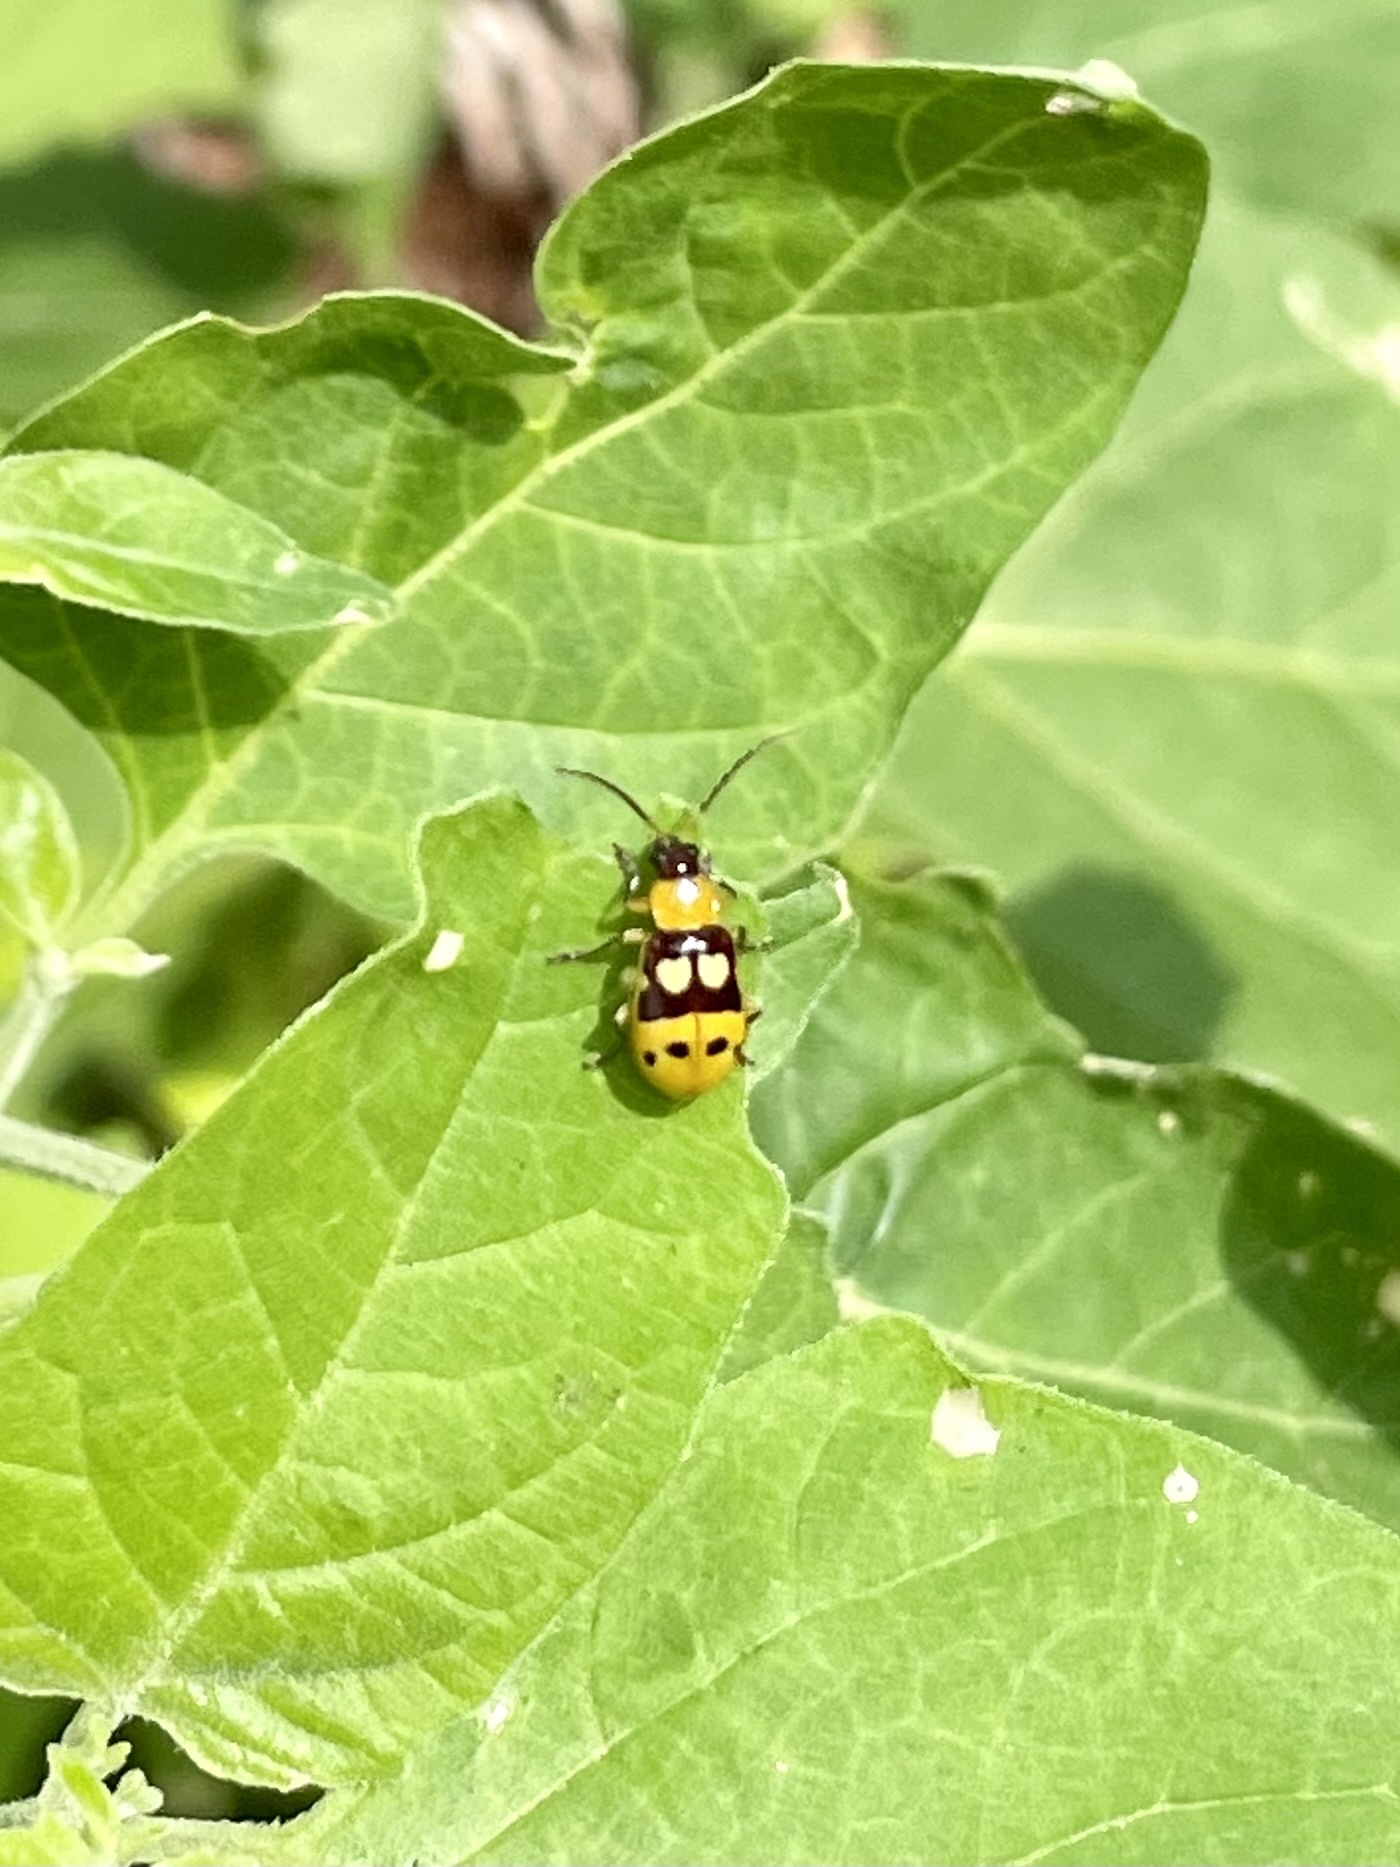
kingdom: Animalia
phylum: Arthropoda
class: Insecta
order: Coleoptera
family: Chrysomelidae
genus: Paranapiacaba
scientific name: Paranapiacaba connexa
